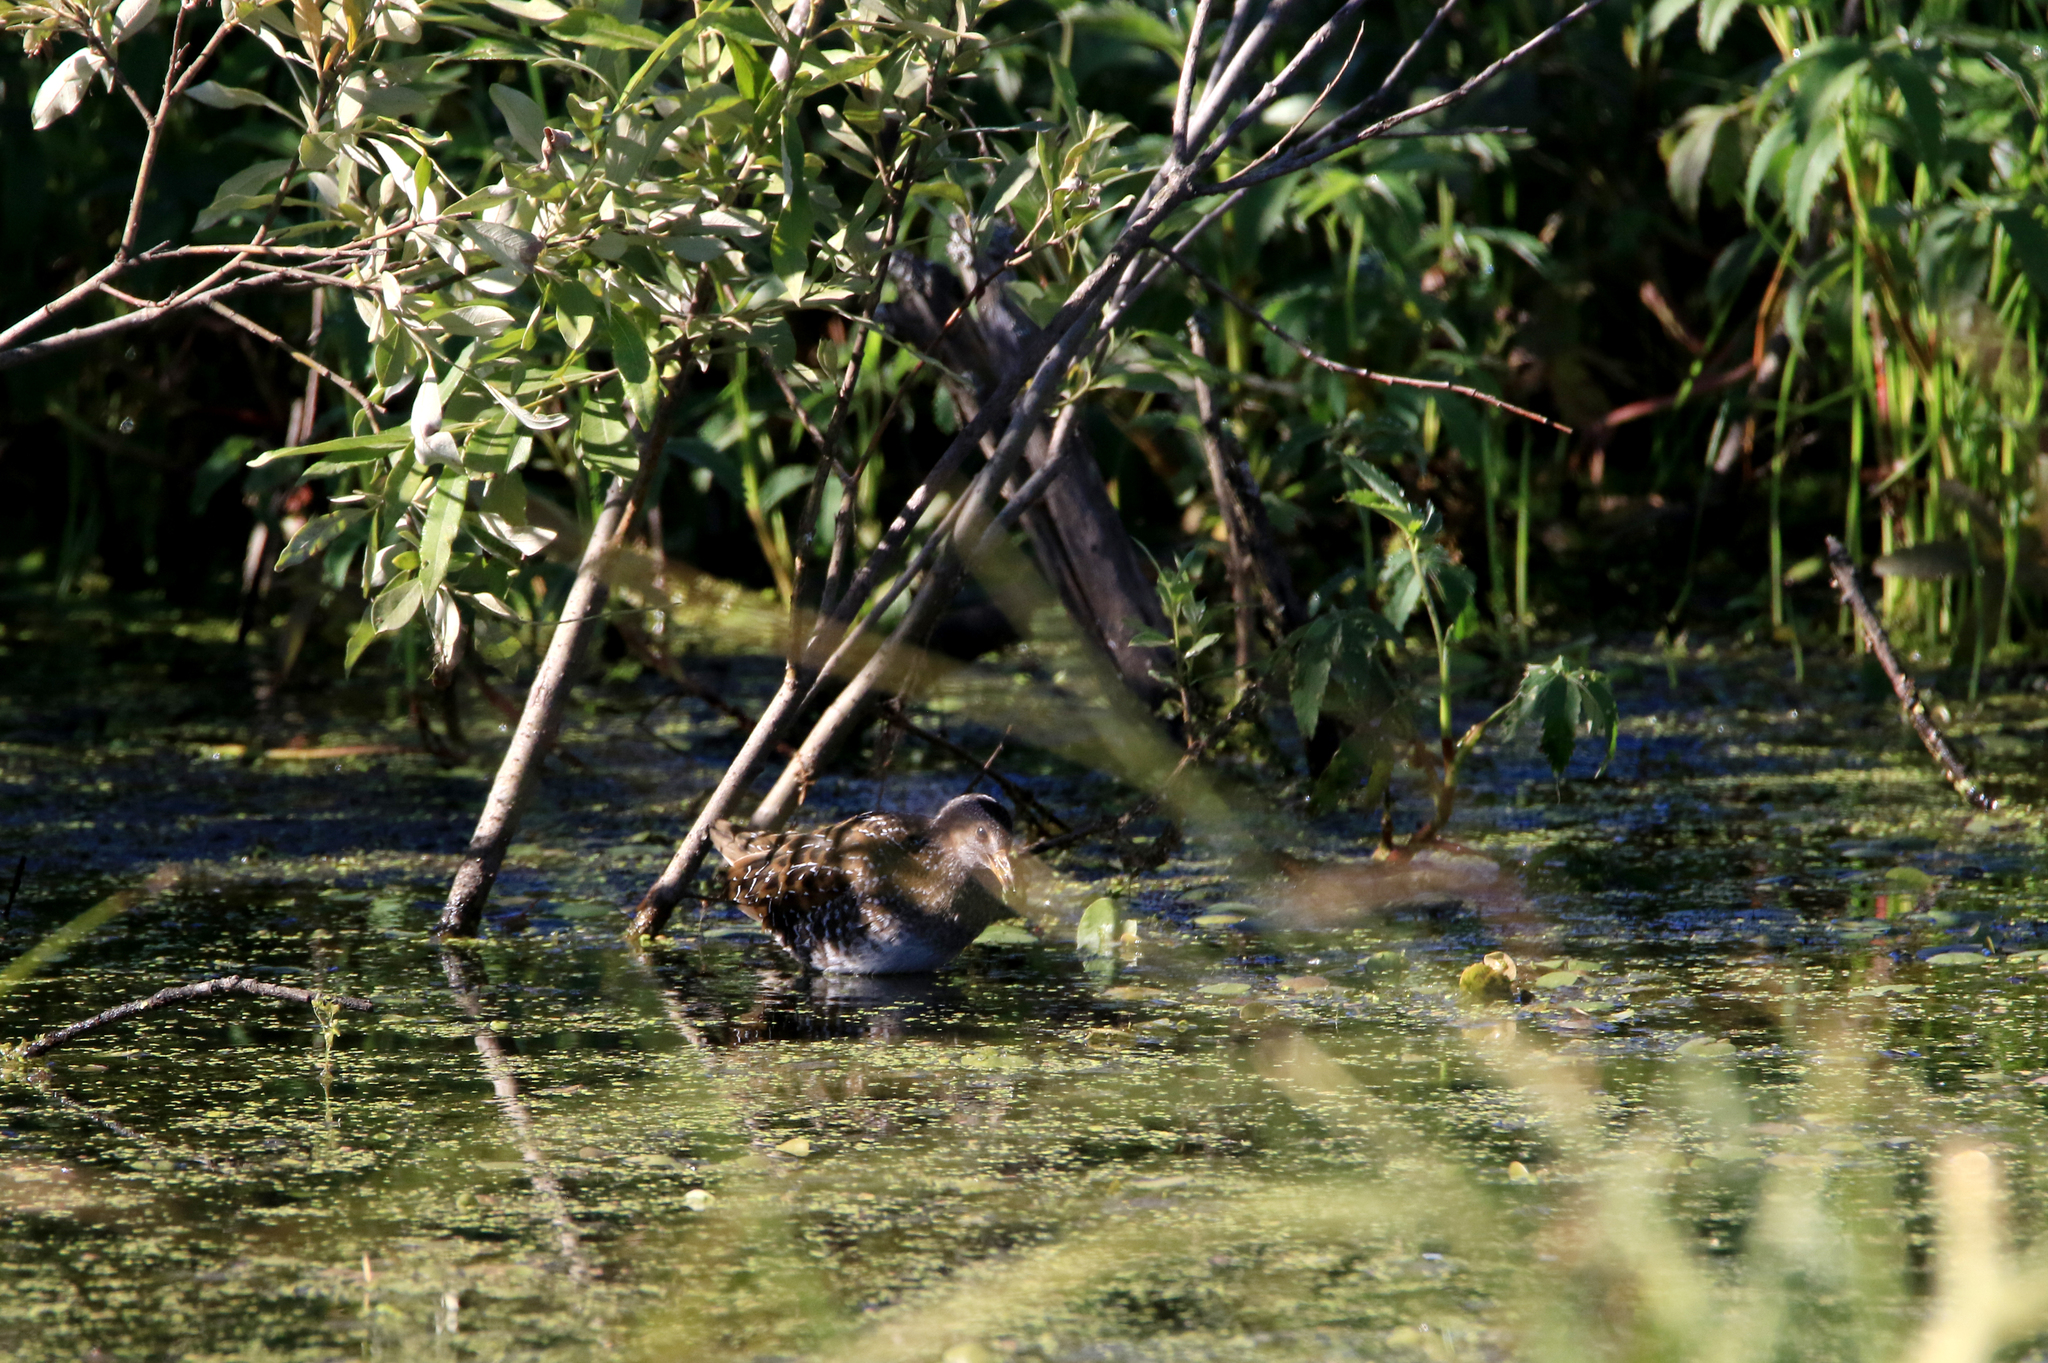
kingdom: Animalia
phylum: Chordata
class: Aves
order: Gruiformes
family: Rallidae
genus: Porzana
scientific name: Porzana porzana
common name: Spotted crake
